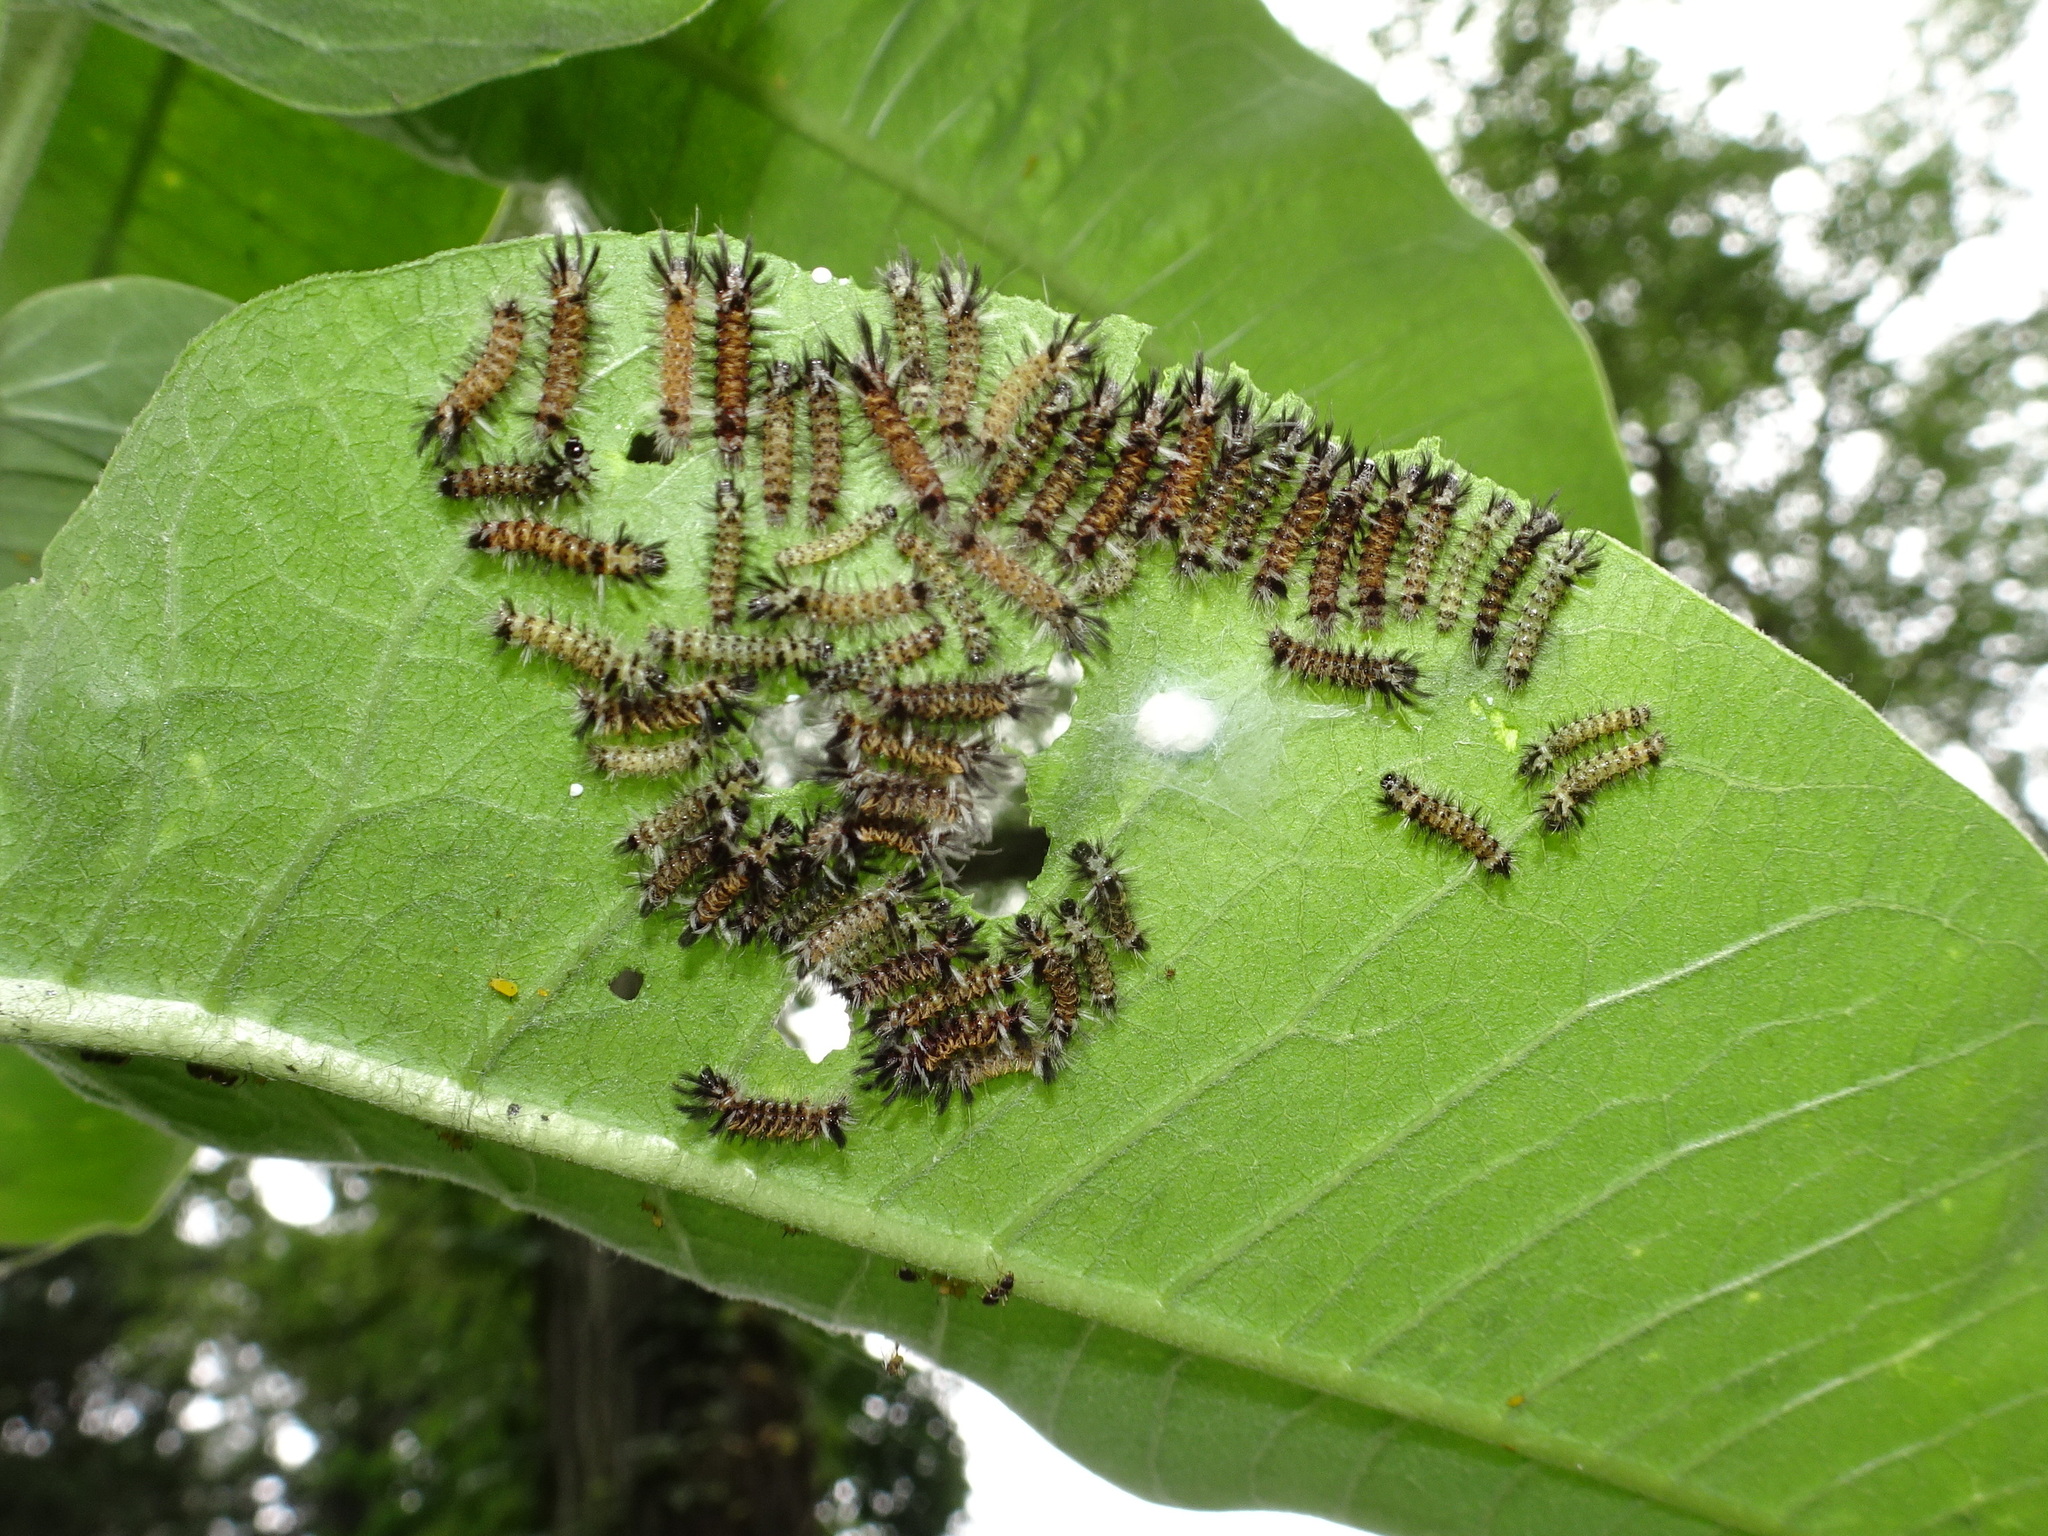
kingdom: Animalia
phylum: Arthropoda
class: Insecta
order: Lepidoptera
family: Erebidae
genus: Euchaetes
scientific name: Euchaetes egle
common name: Milkweed tussock moth
